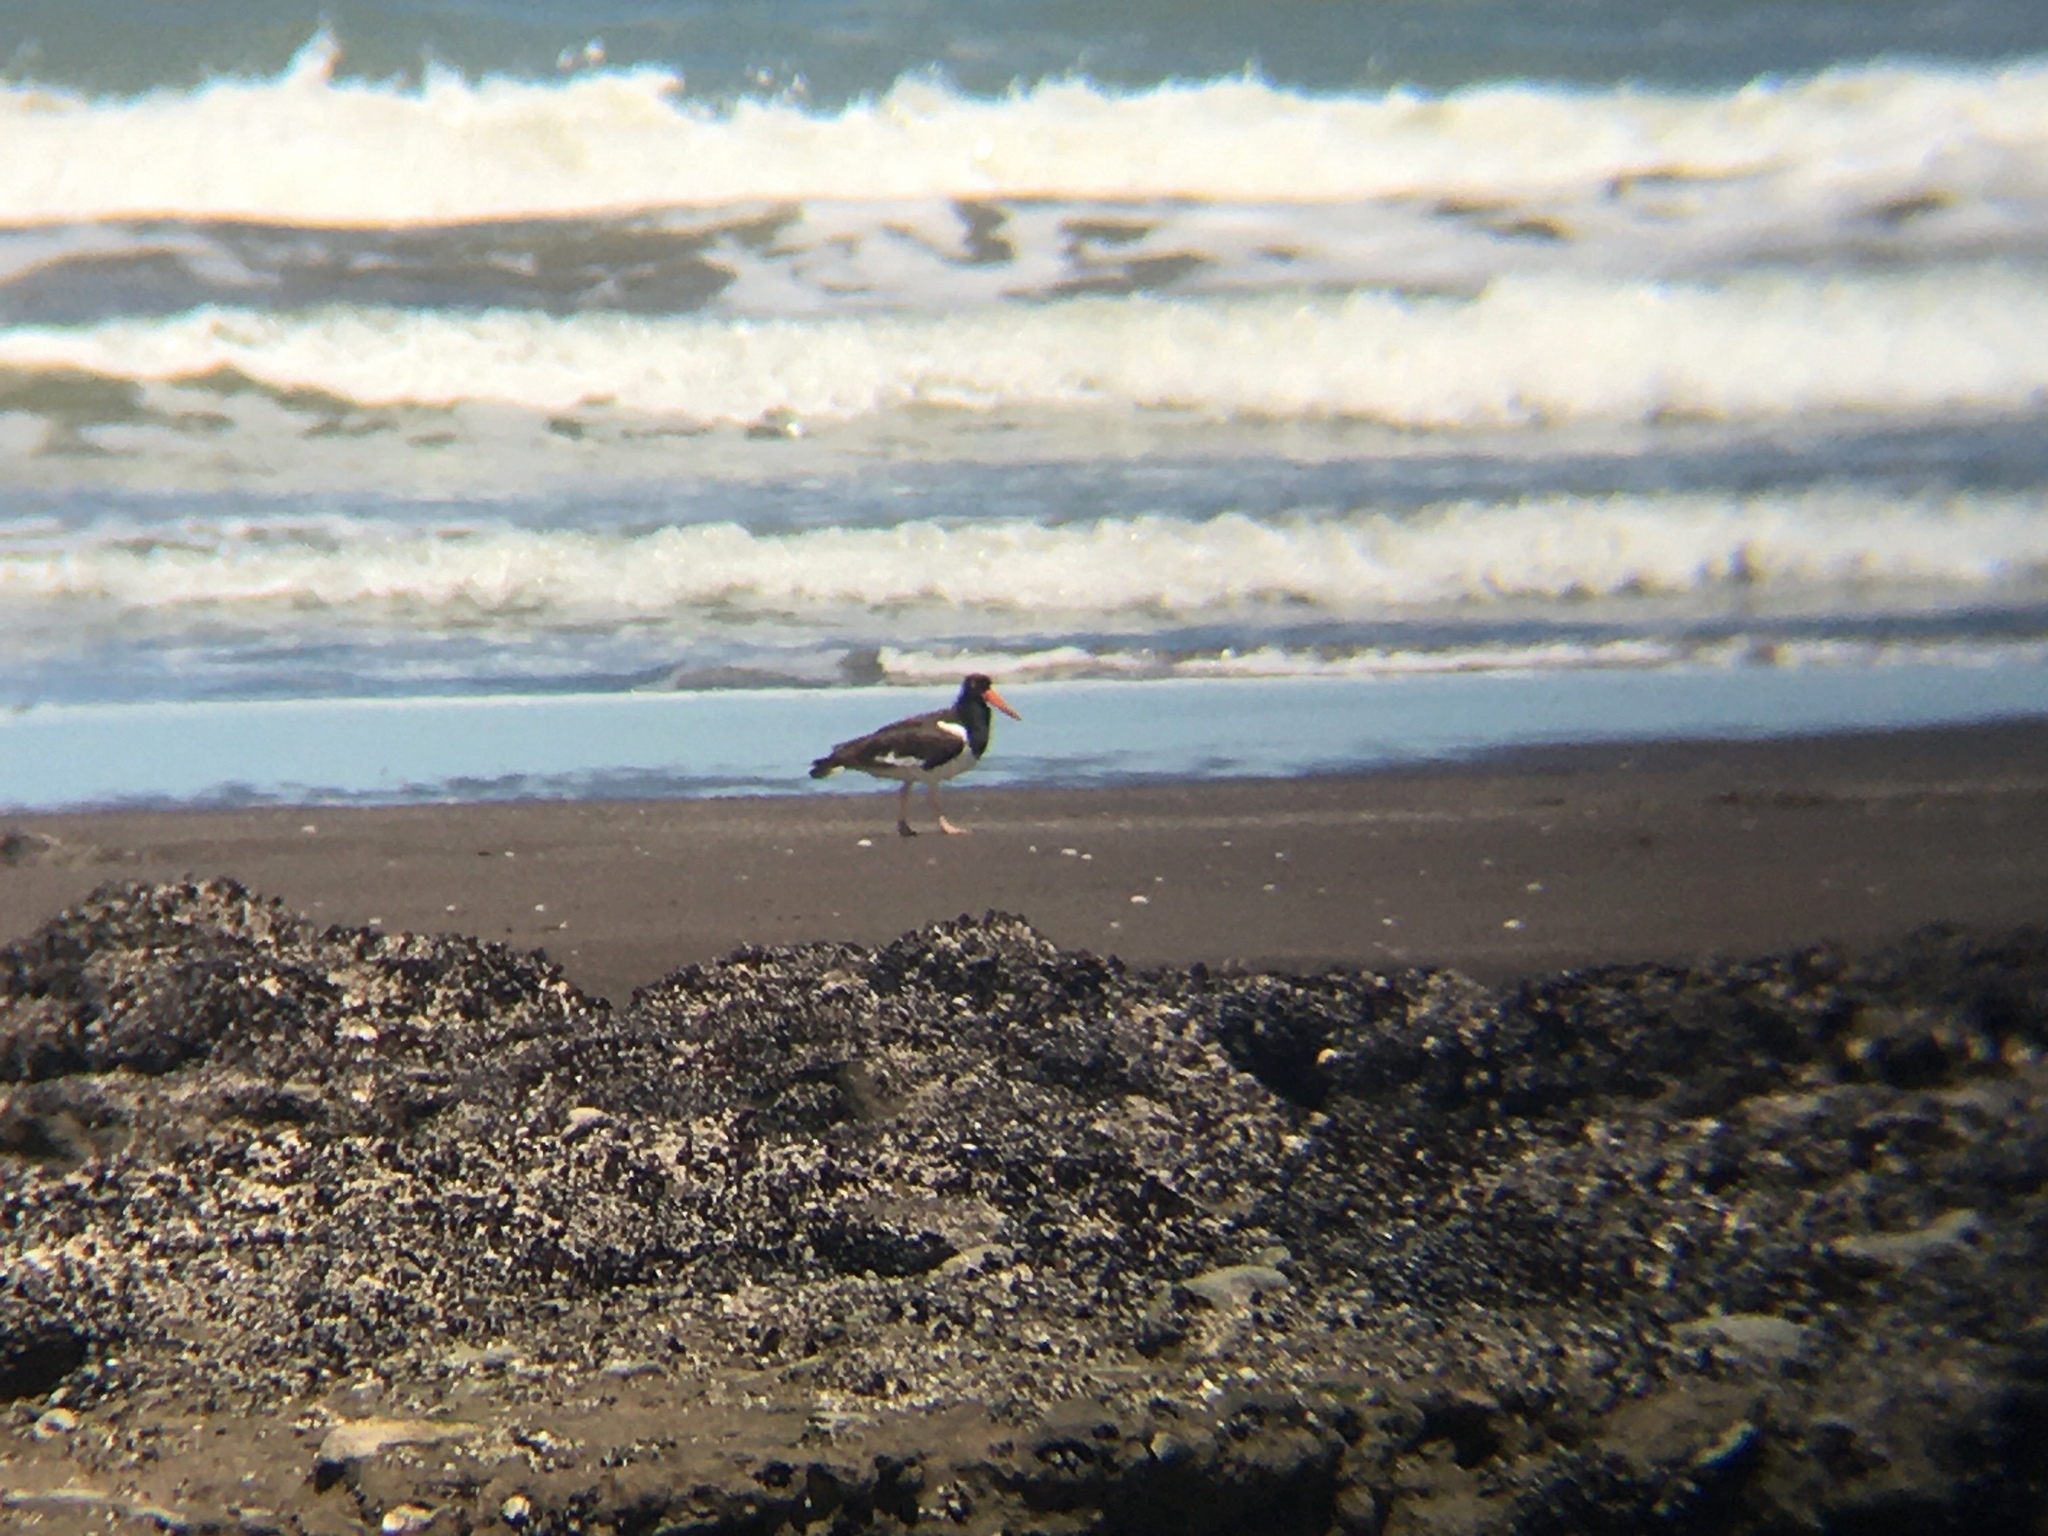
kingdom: Animalia
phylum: Chordata
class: Aves
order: Charadriiformes
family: Haematopodidae
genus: Haematopus
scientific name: Haematopus palliatus
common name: American oystercatcher
